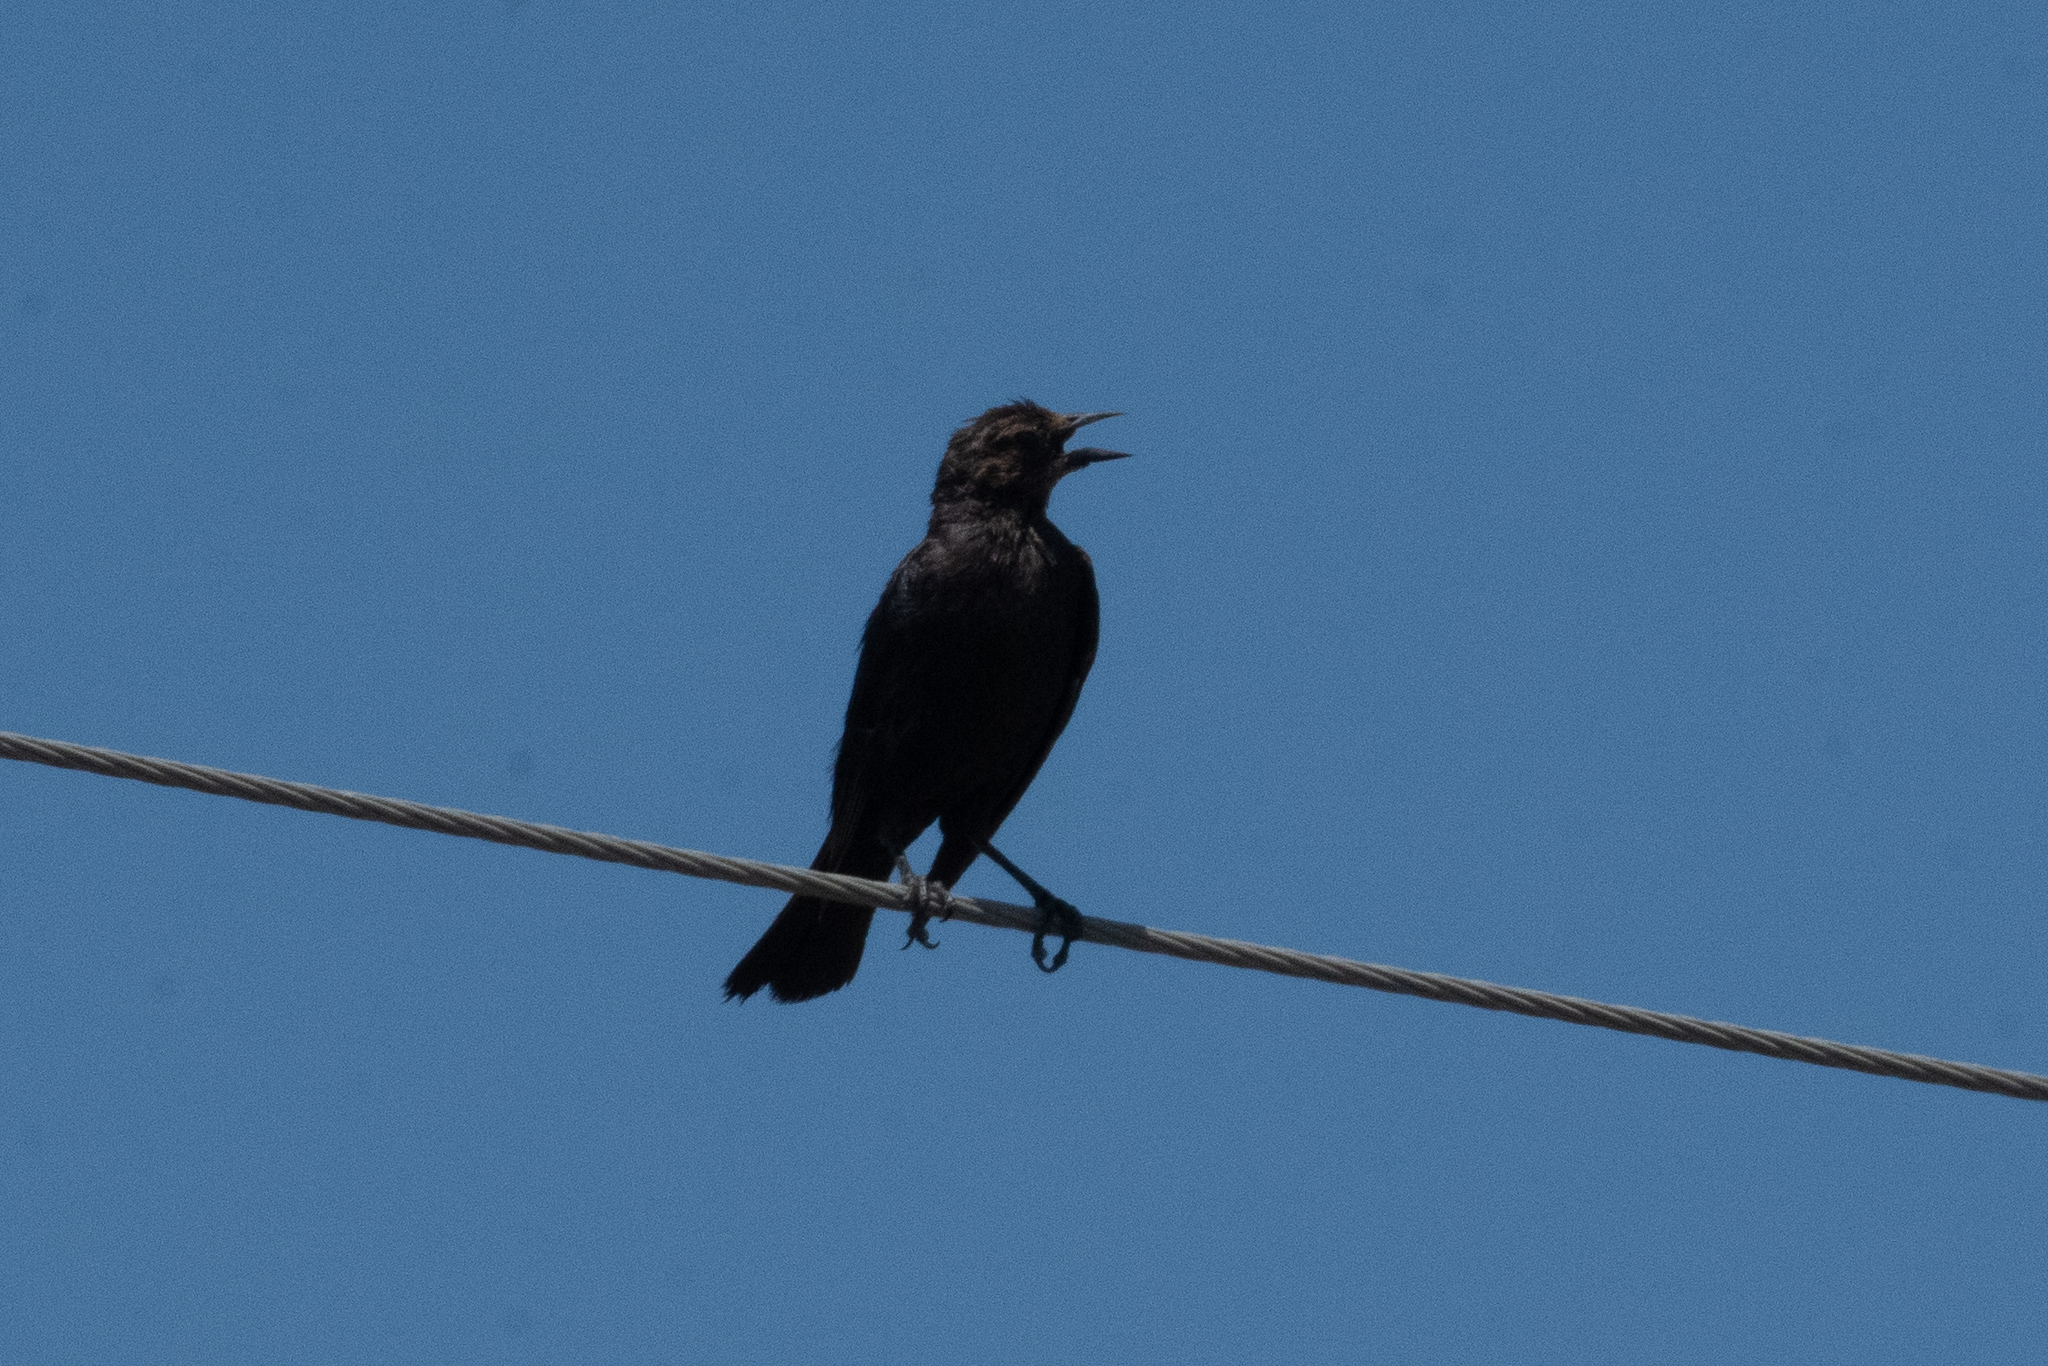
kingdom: Animalia
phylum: Chordata
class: Aves
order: Passeriformes
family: Icteridae
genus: Euphagus
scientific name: Euphagus cyanocephalus
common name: Brewer's blackbird
